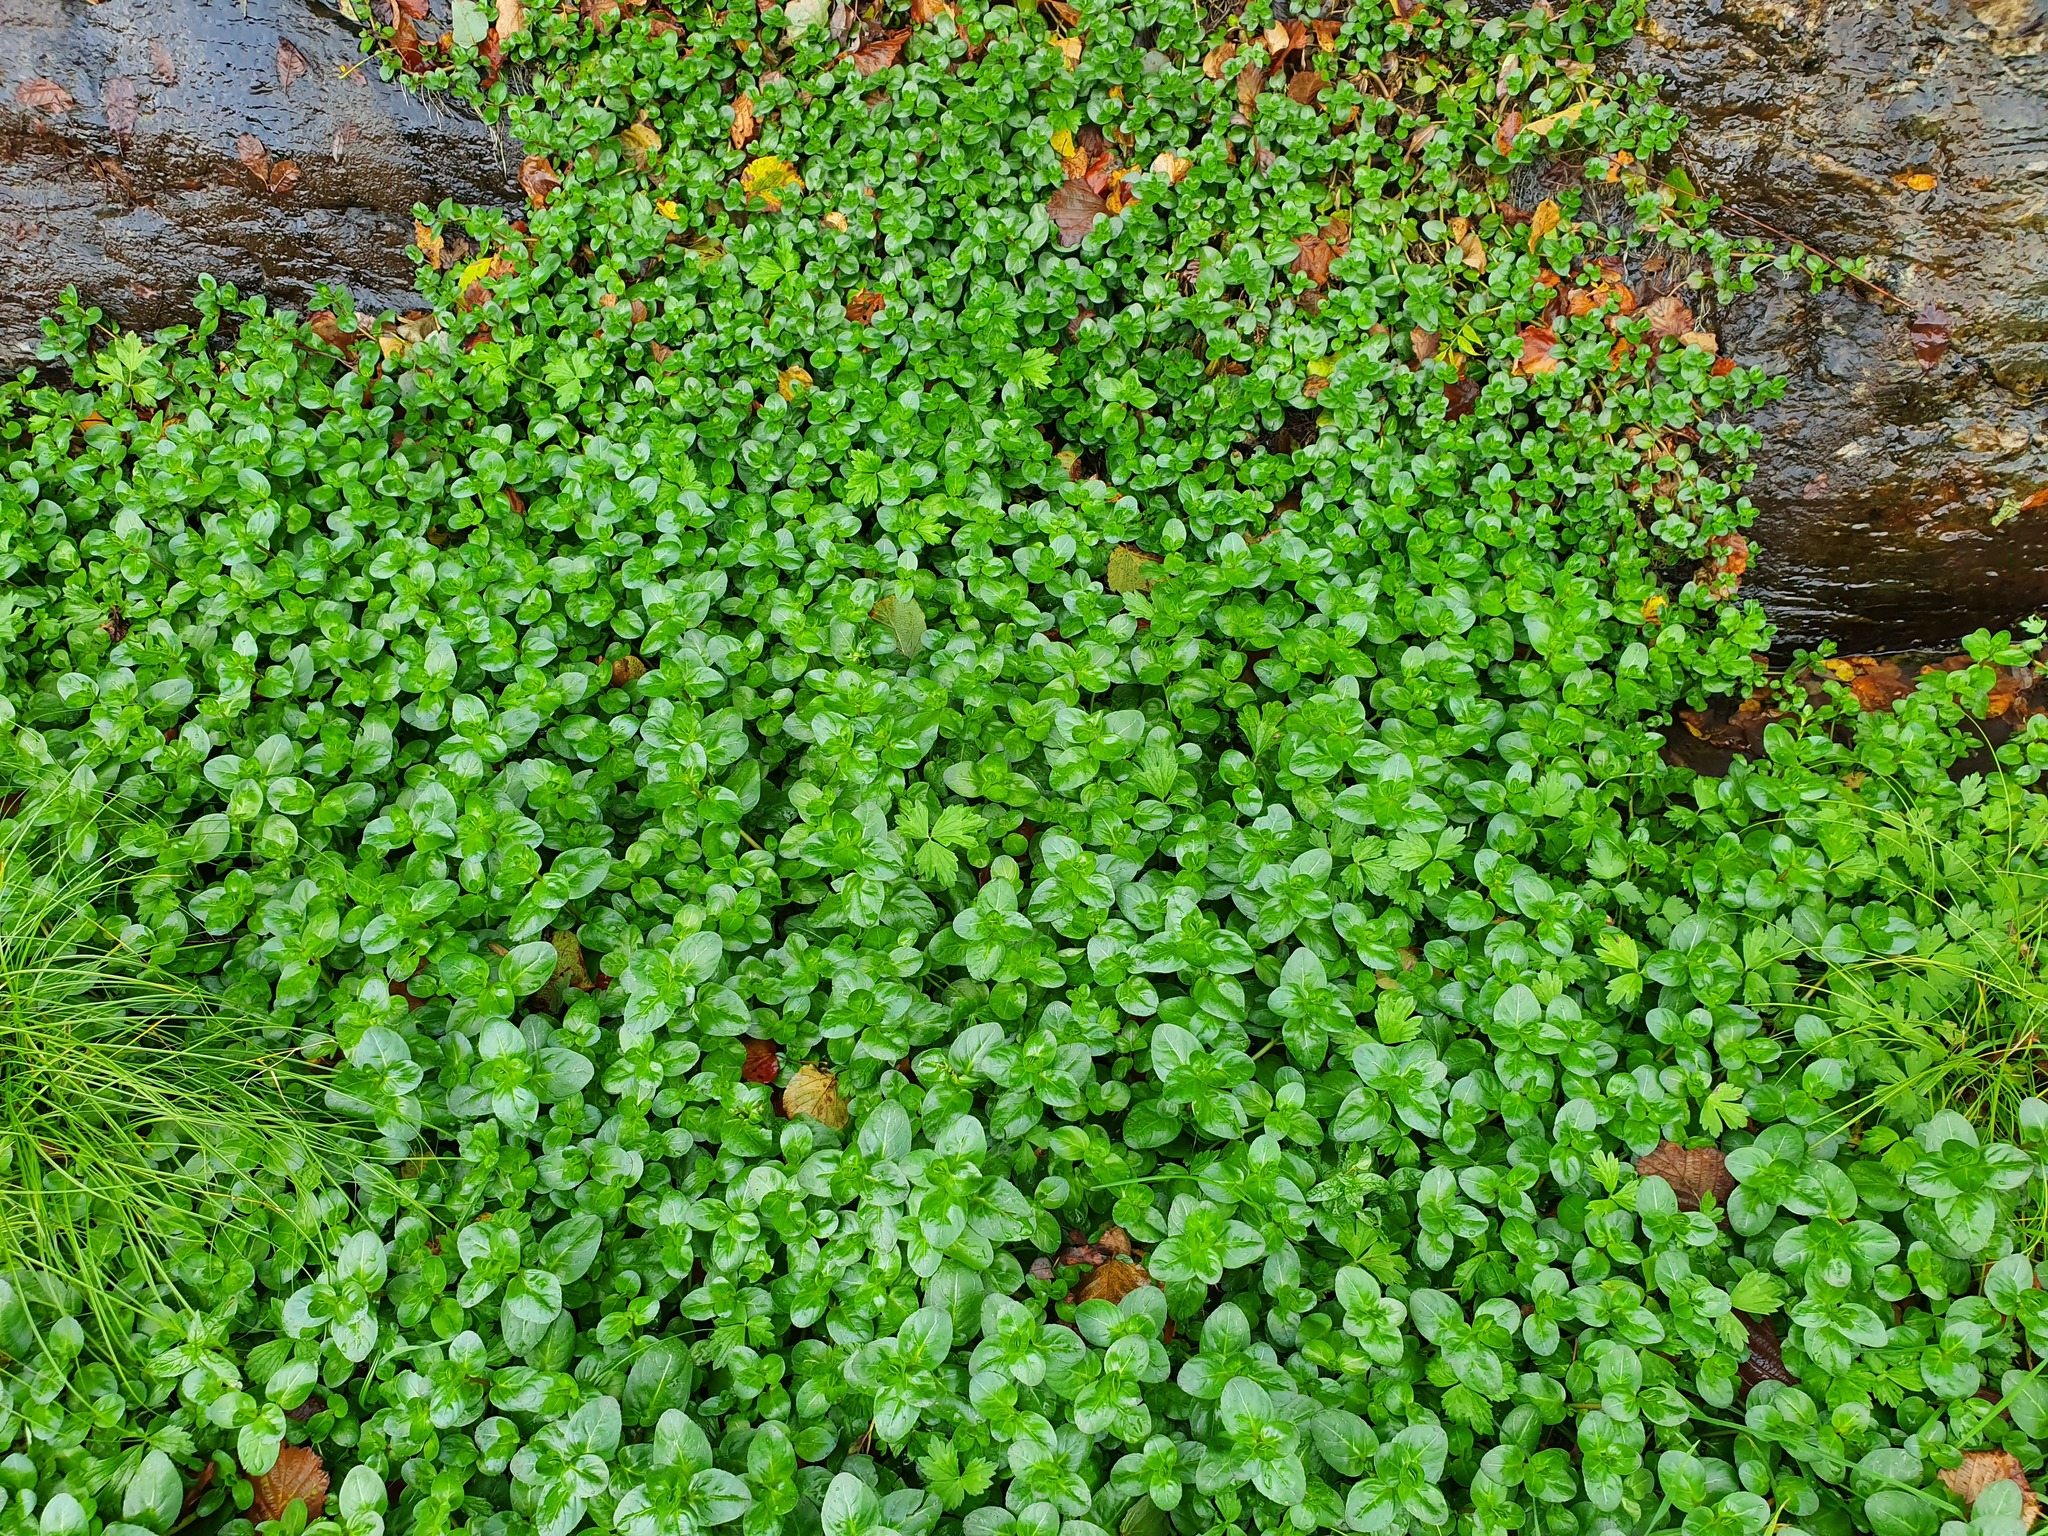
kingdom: Plantae
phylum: Tracheophyta
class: Magnoliopsida
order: Lamiales
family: Plantaginaceae
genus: Veronica
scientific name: Veronica beccabunga
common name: Brooklime
